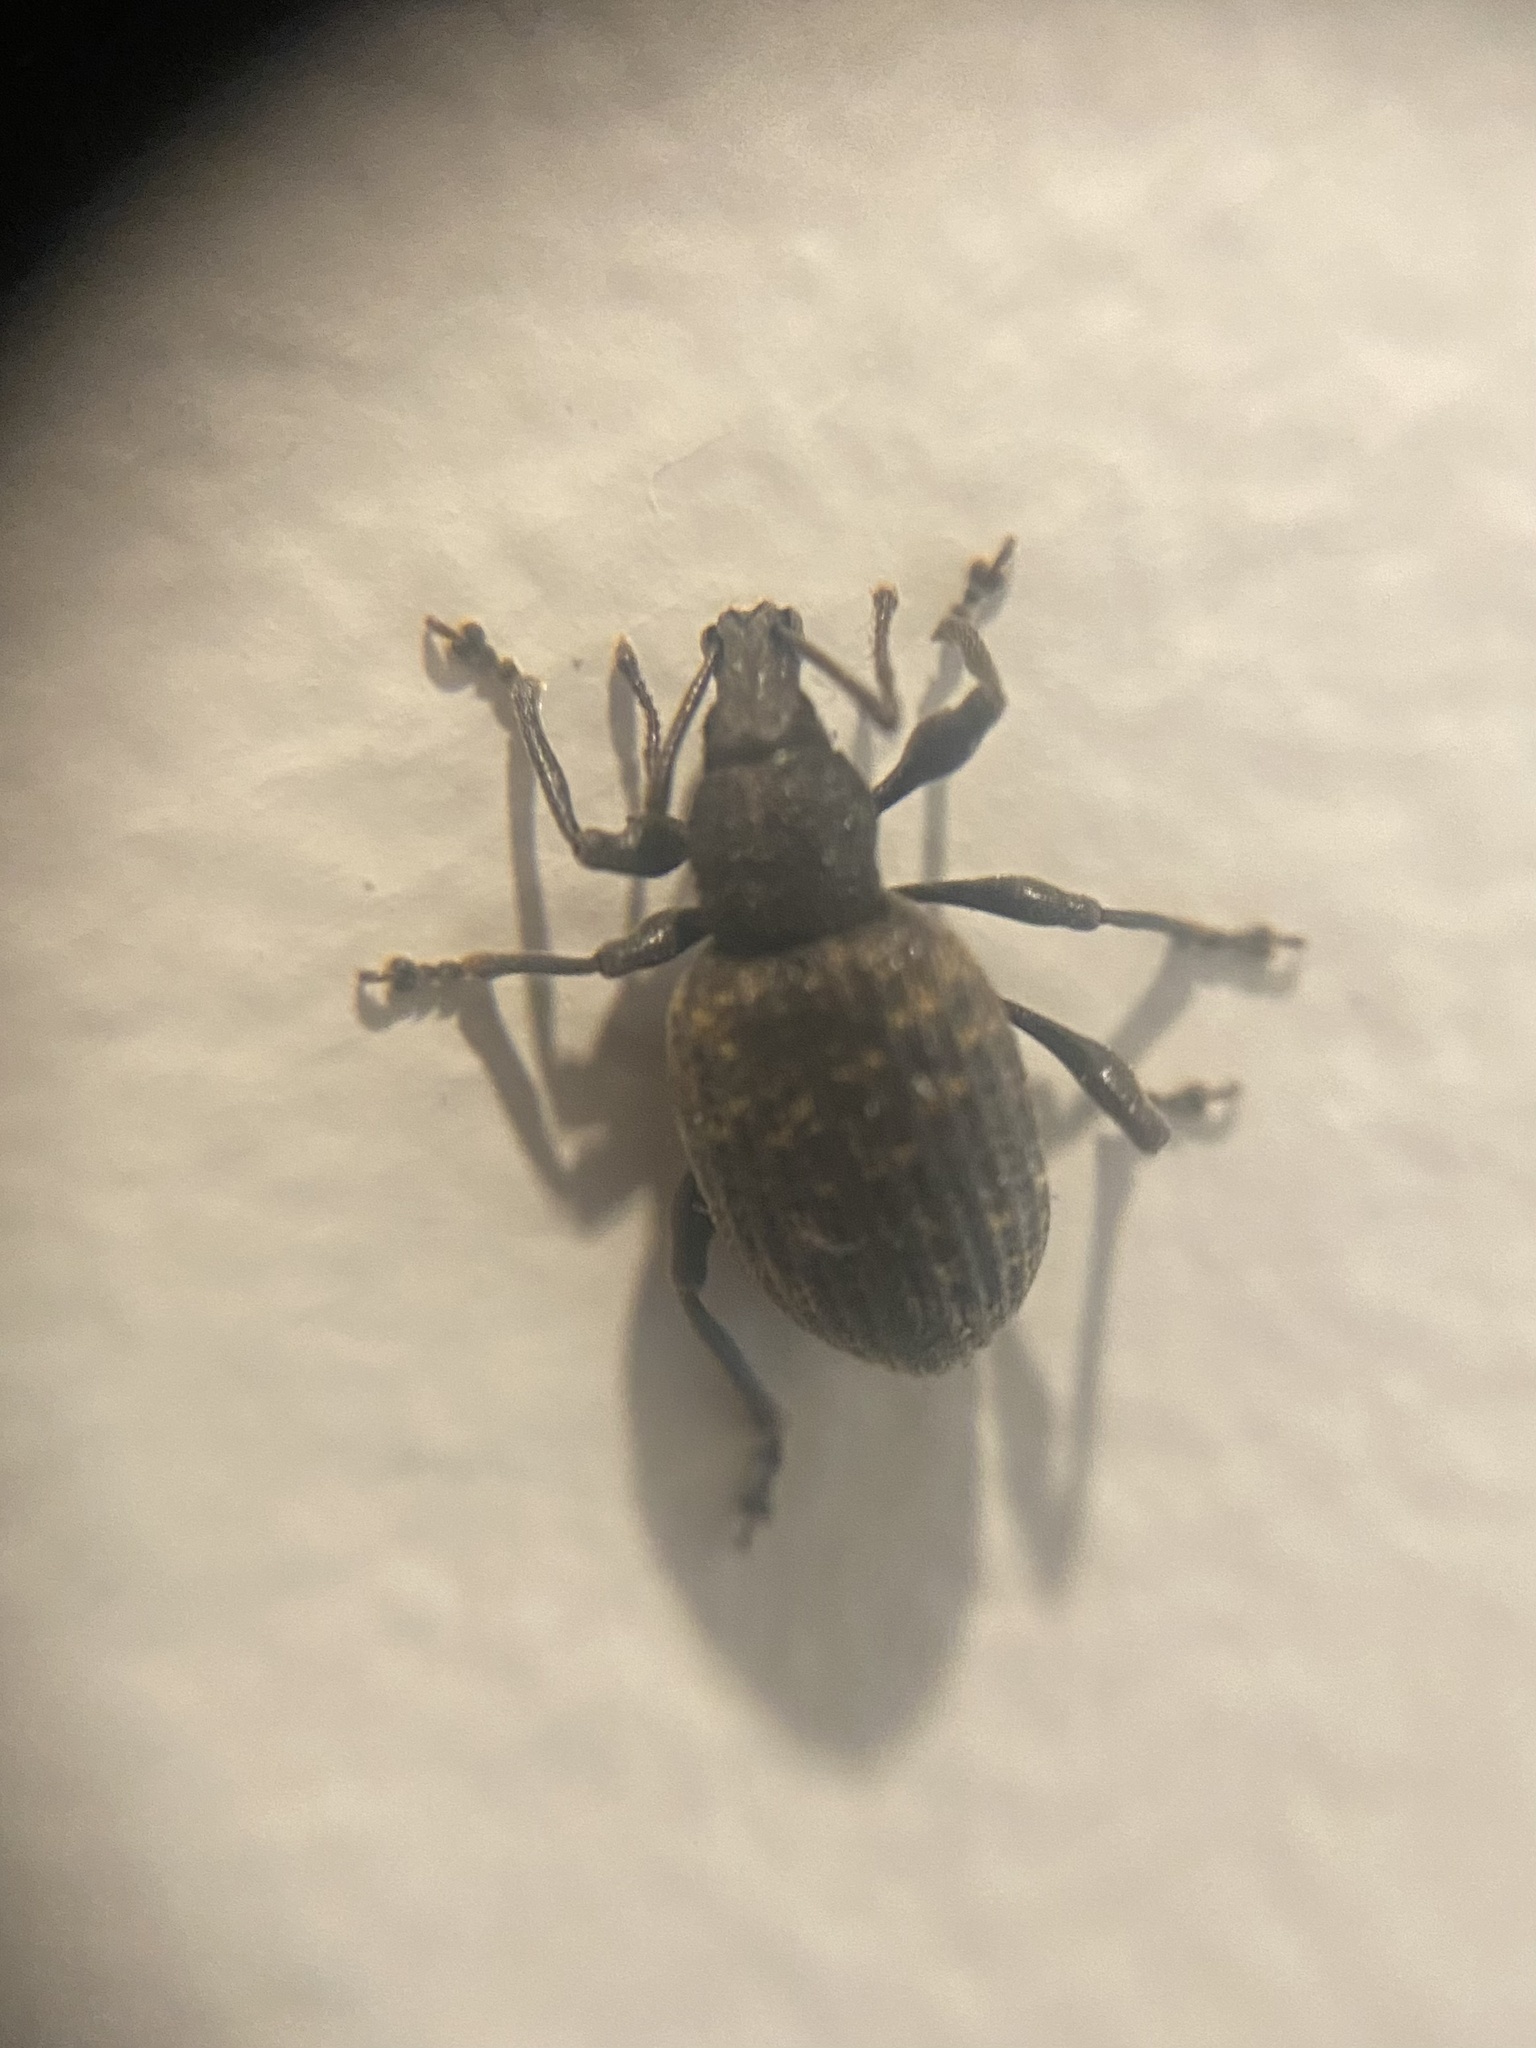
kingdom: Animalia
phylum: Arthropoda
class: Insecta
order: Coleoptera
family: Curculionidae
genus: Otiorhynchus
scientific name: Otiorhynchus sulcatus
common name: Black vine weevil
